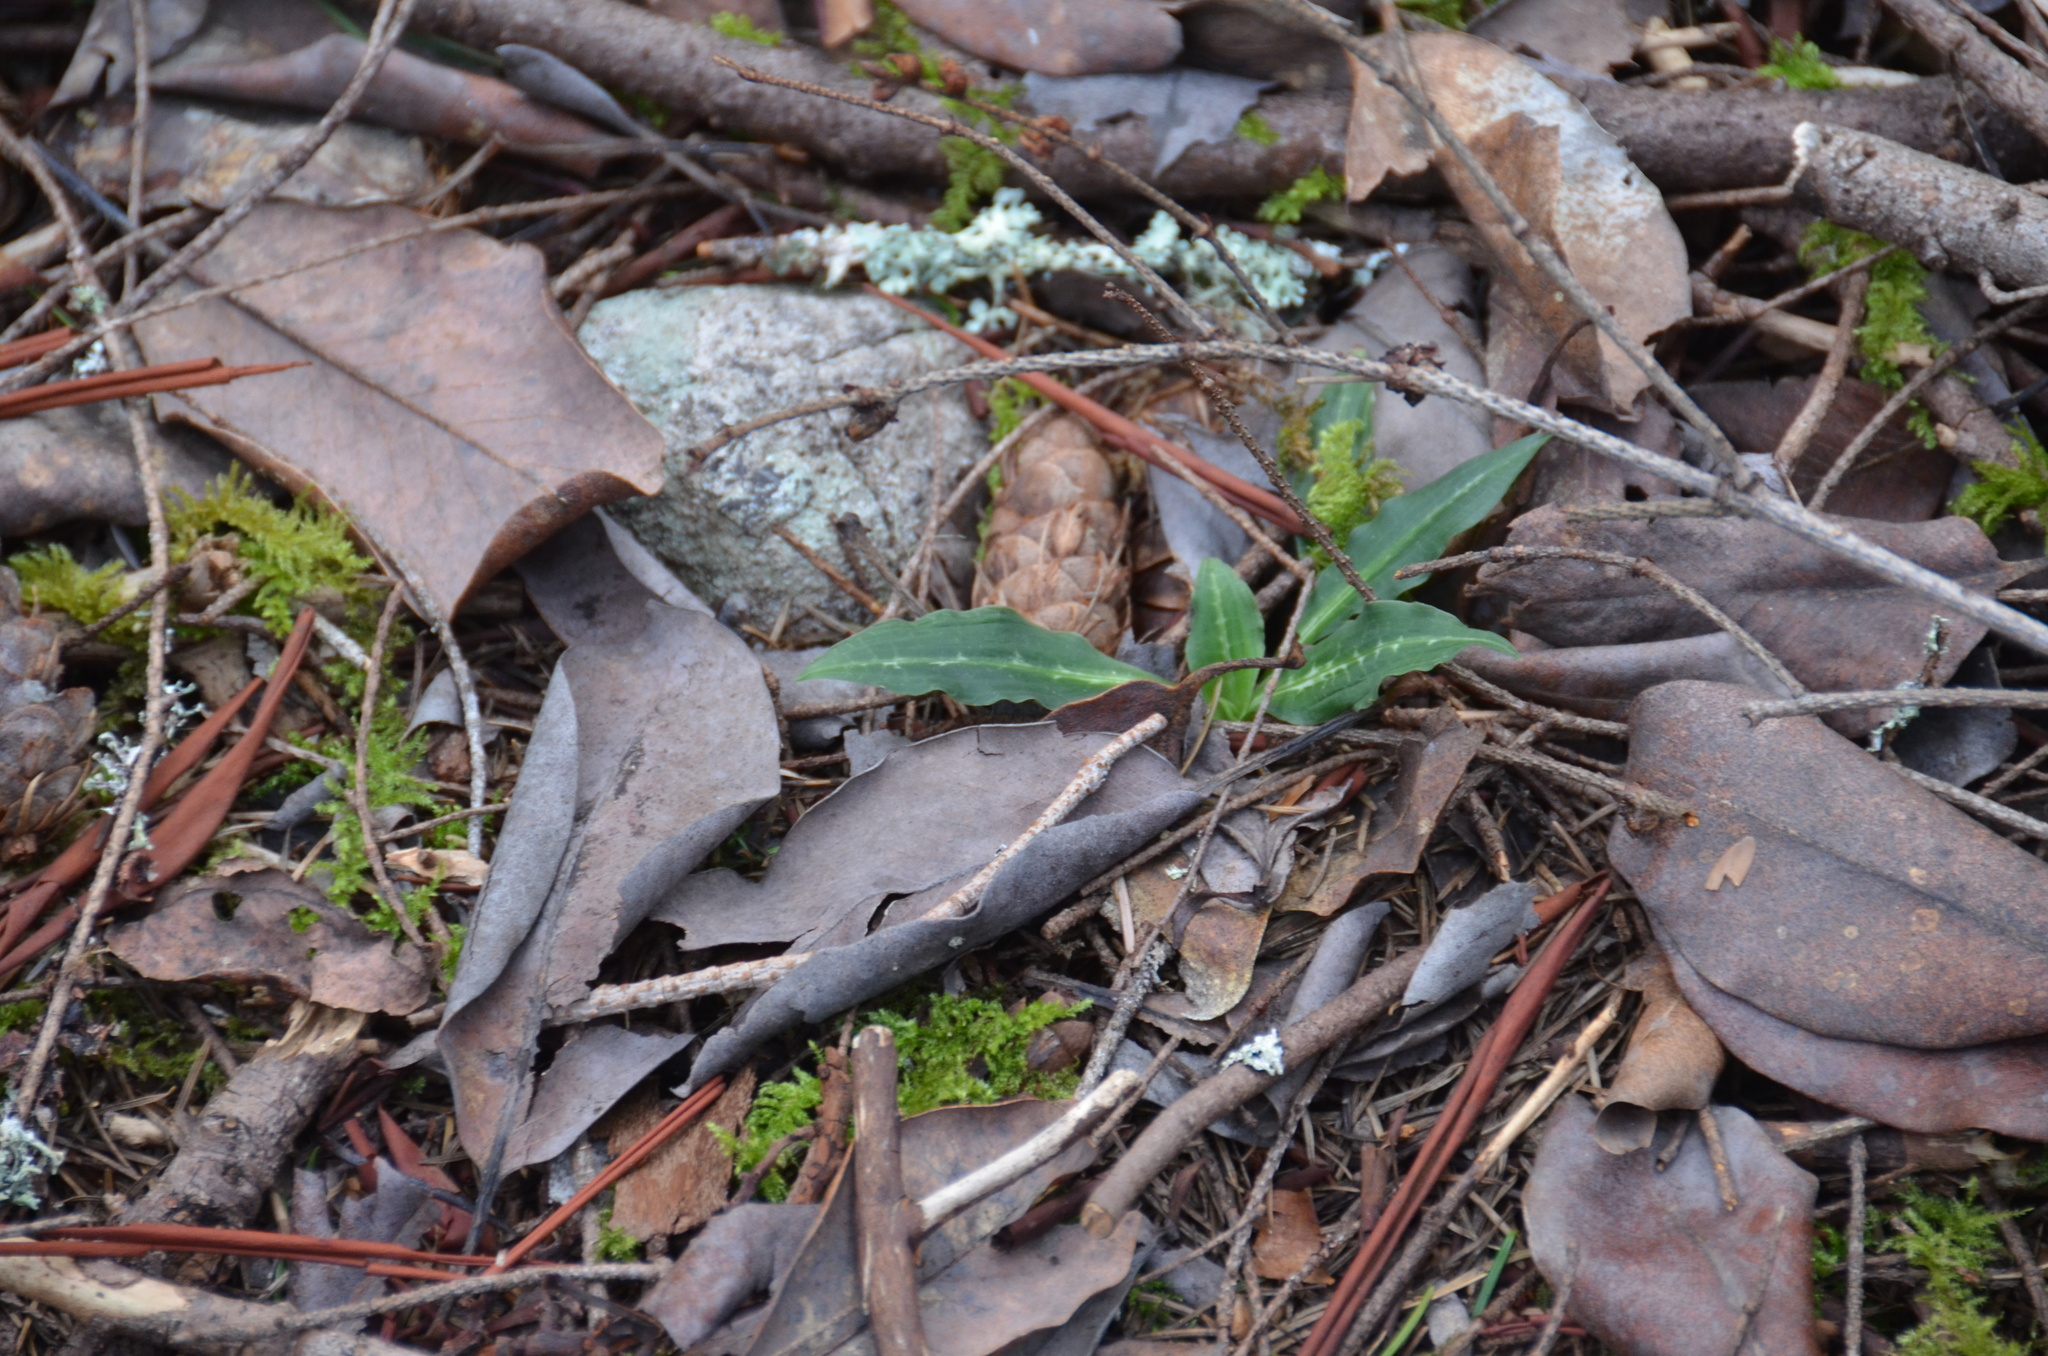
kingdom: Plantae
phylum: Tracheophyta
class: Liliopsida
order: Asparagales
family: Orchidaceae
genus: Goodyera
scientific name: Goodyera oblongifolia
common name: Giant rattlesnake-plantain
